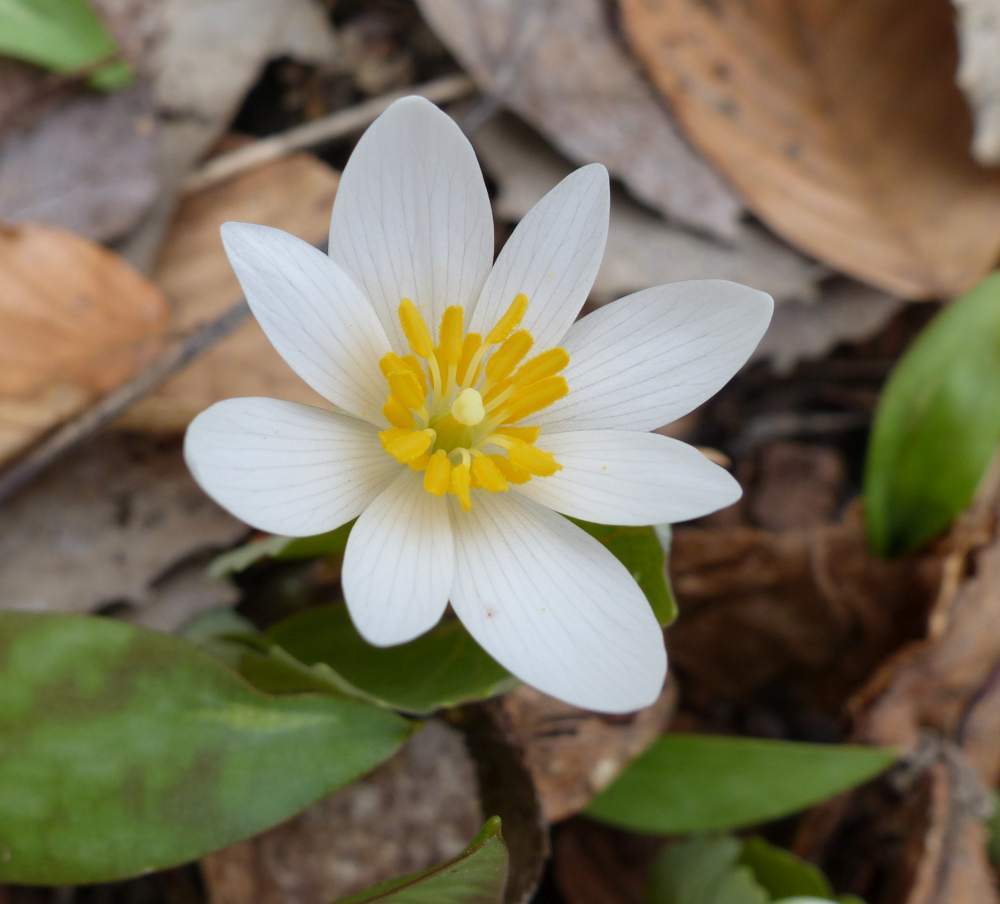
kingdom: Plantae
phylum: Tracheophyta
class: Magnoliopsida
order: Ranunculales
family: Papaveraceae
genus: Sanguinaria
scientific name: Sanguinaria canadensis
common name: Bloodroot
